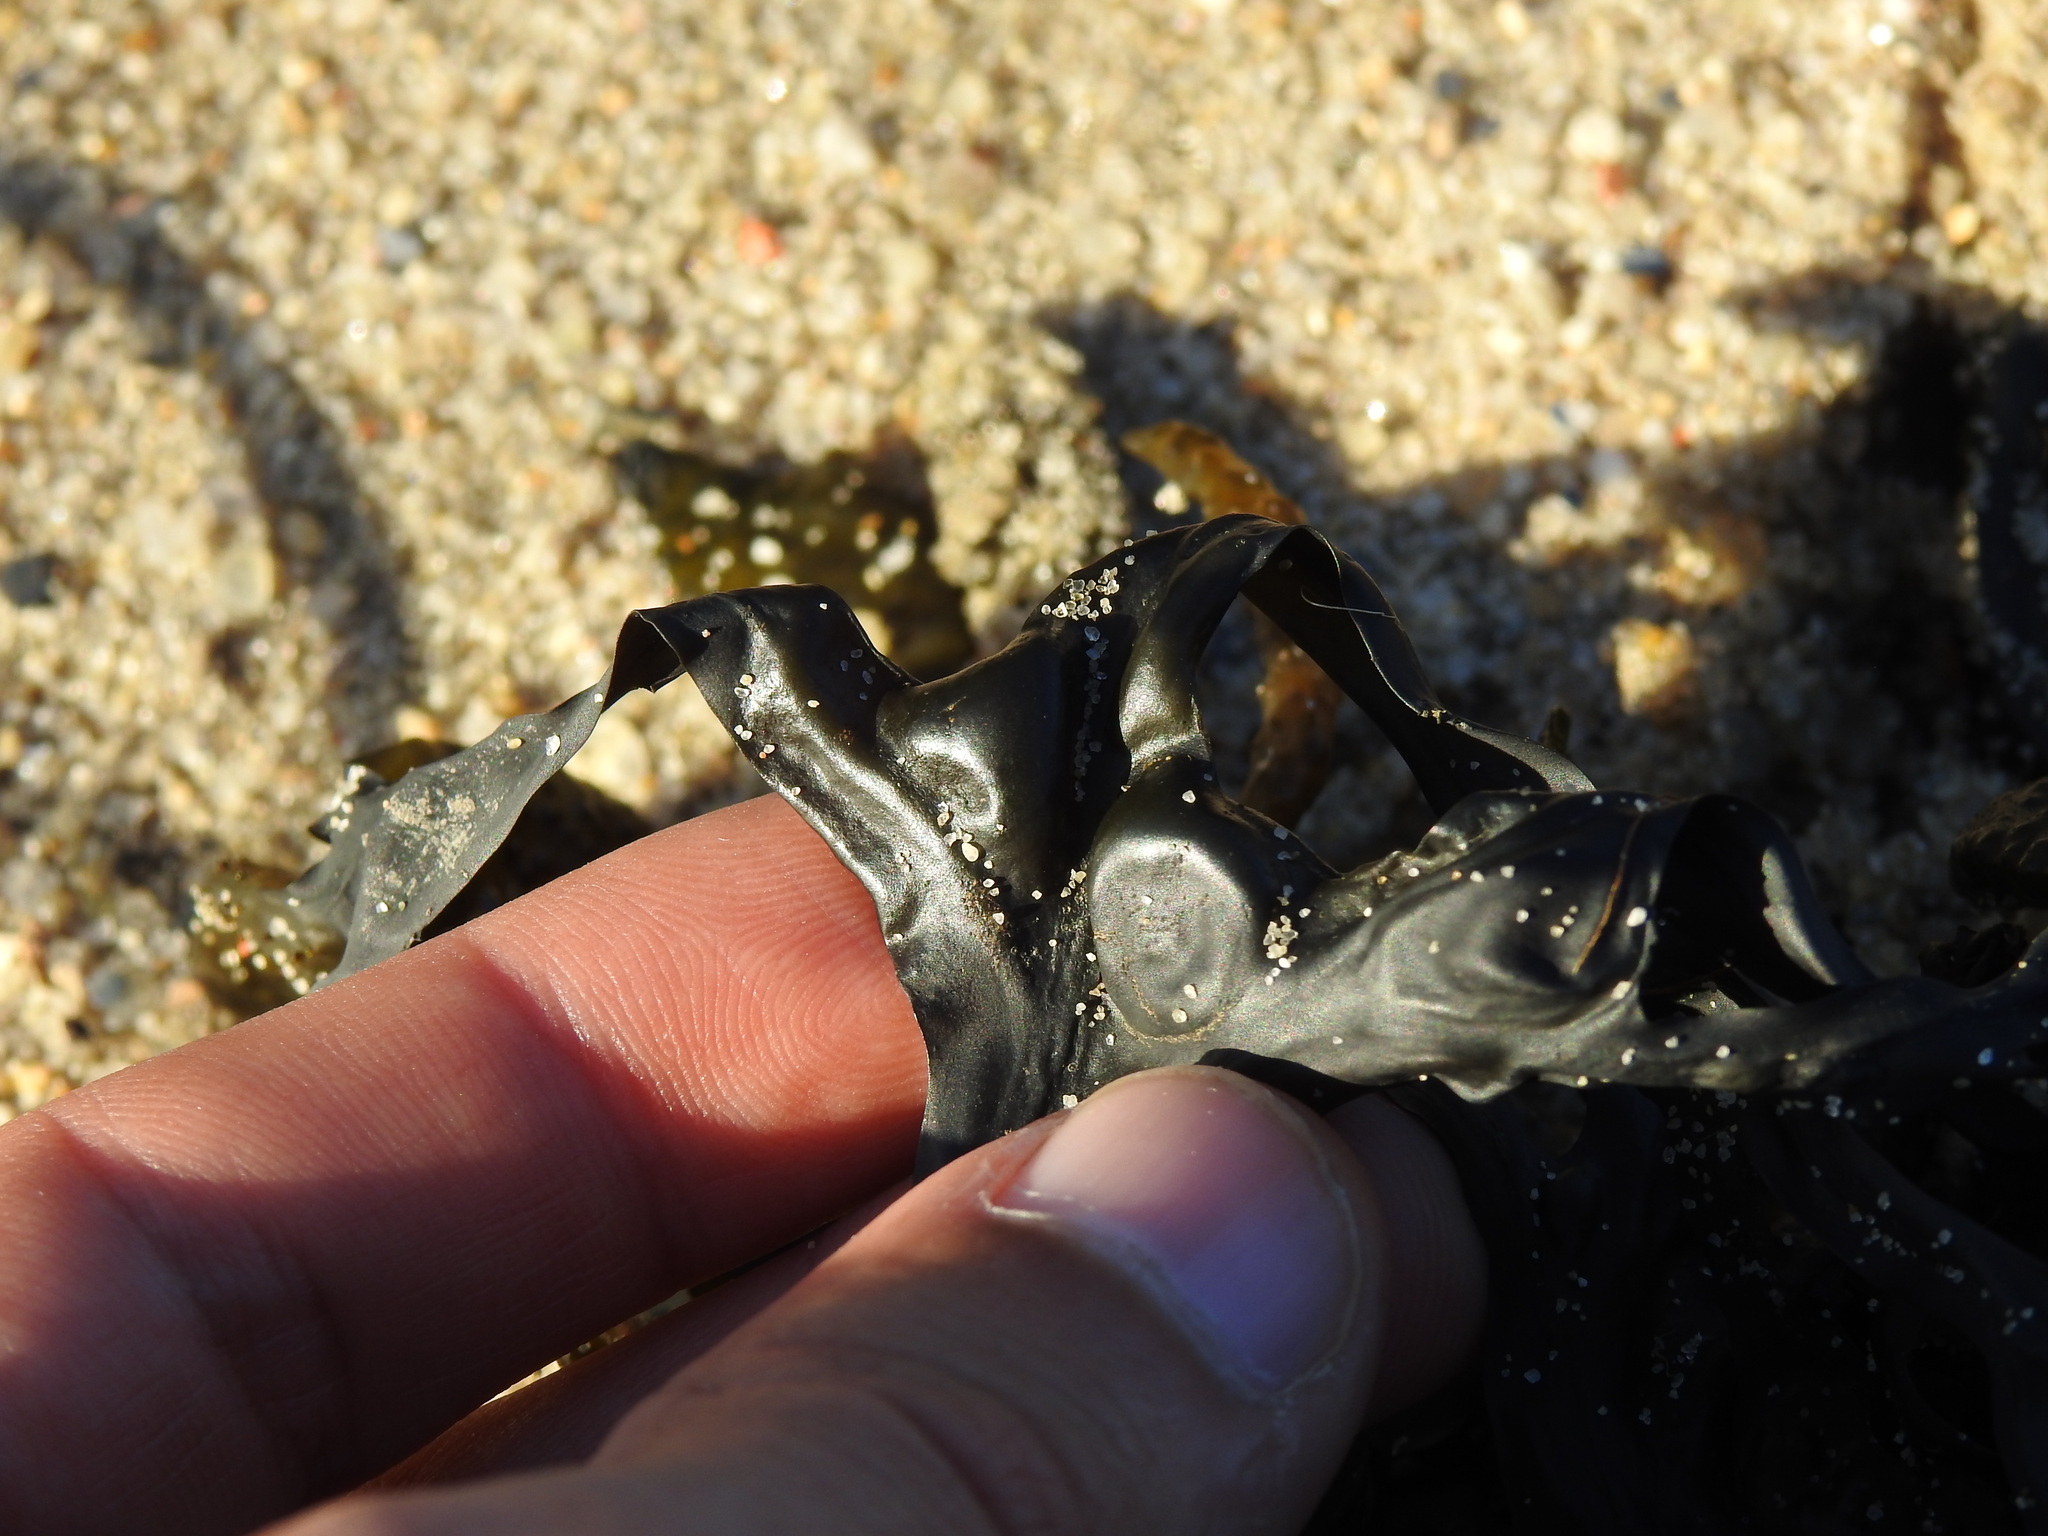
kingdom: Chromista
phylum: Ochrophyta
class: Phaeophyceae
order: Fucales
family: Fucaceae
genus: Fucus
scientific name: Fucus vesiculosus
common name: Bladder wrack
